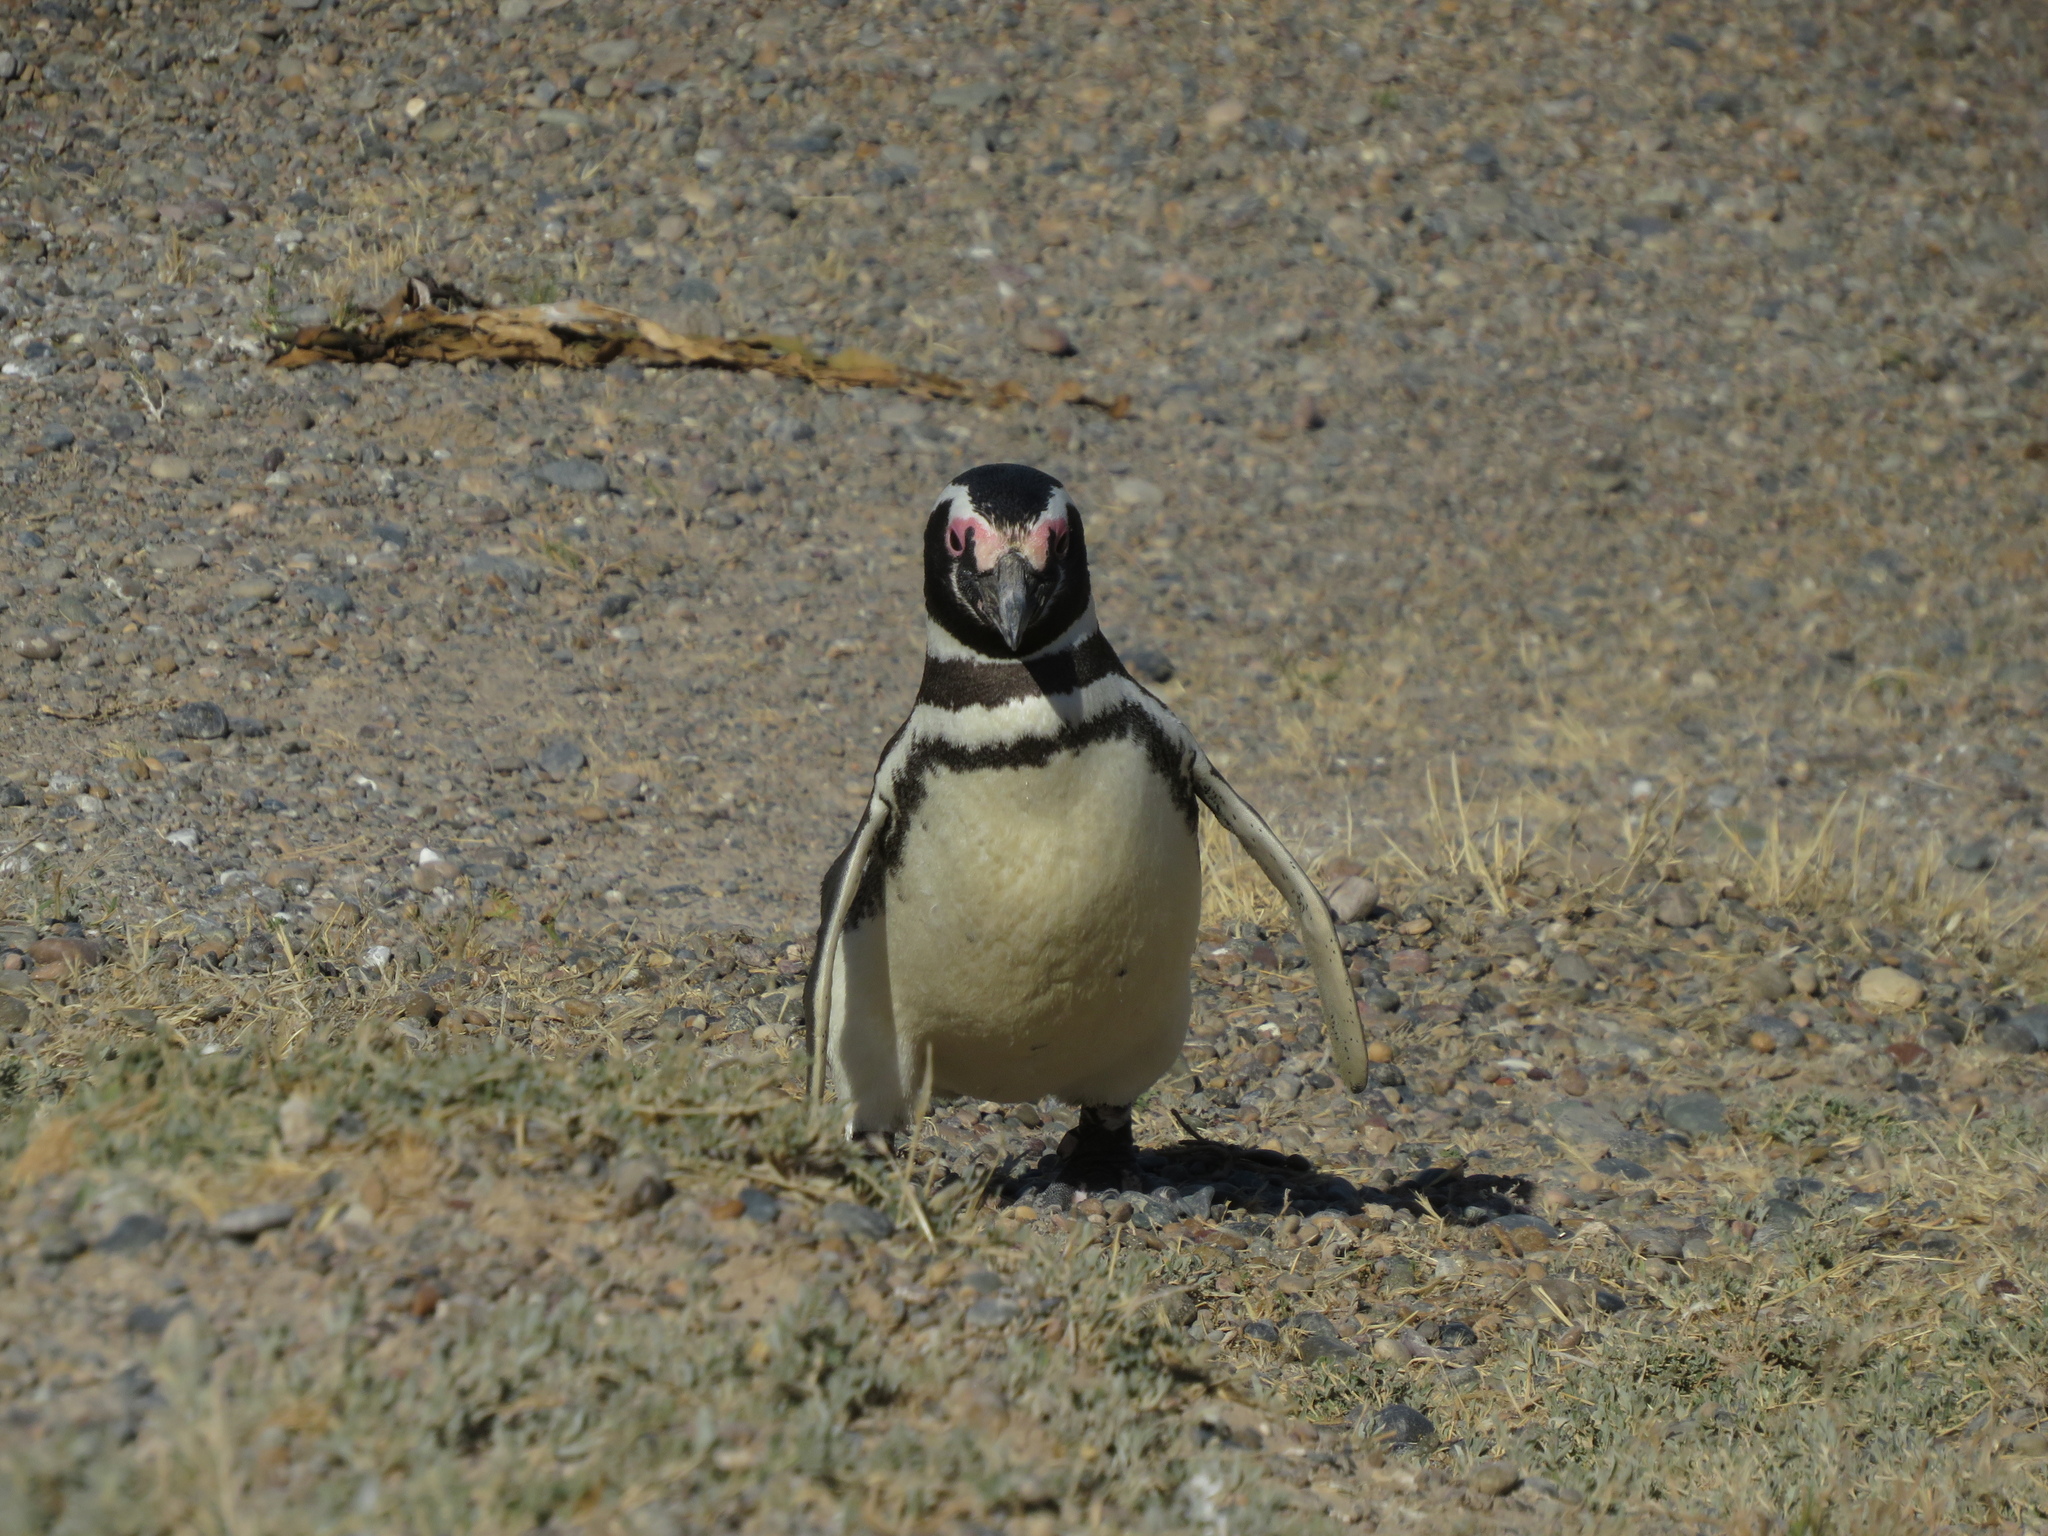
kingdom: Animalia
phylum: Chordata
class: Aves
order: Sphenisciformes
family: Spheniscidae
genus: Spheniscus
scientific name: Spheniscus magellanicus
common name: Magellanic penguin
